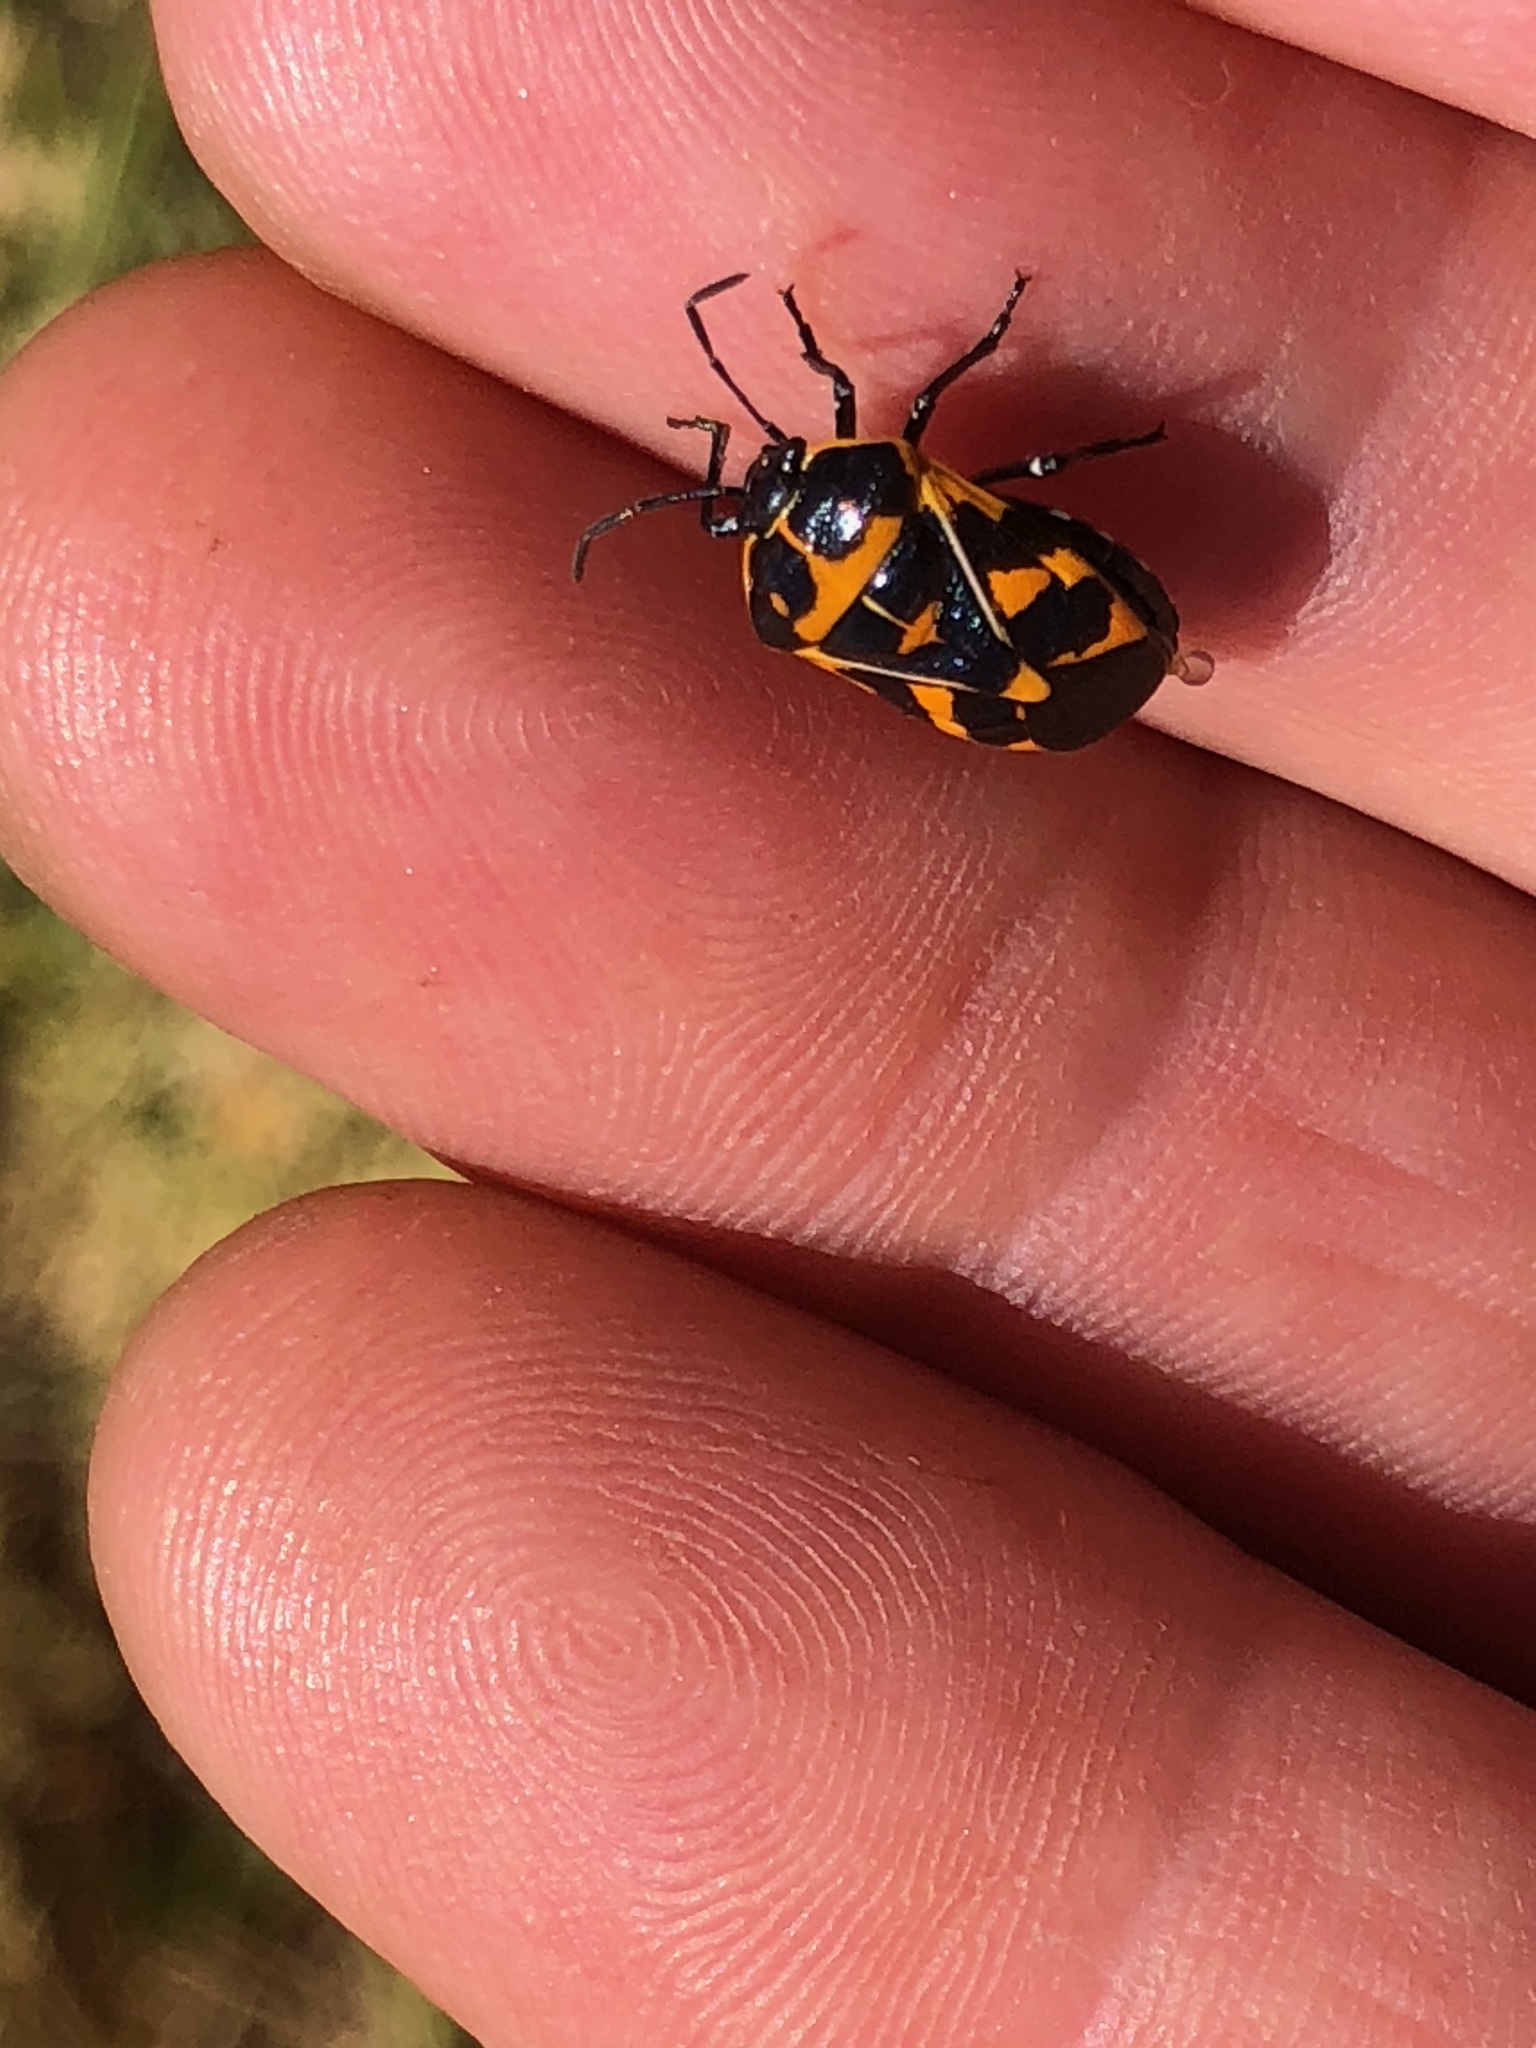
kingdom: Animalia
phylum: Arthropoda
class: Insecta
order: Hemiptera
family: Pentatomidae
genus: Murgantia
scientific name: Murgantia histrionica
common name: Harlequin bug
